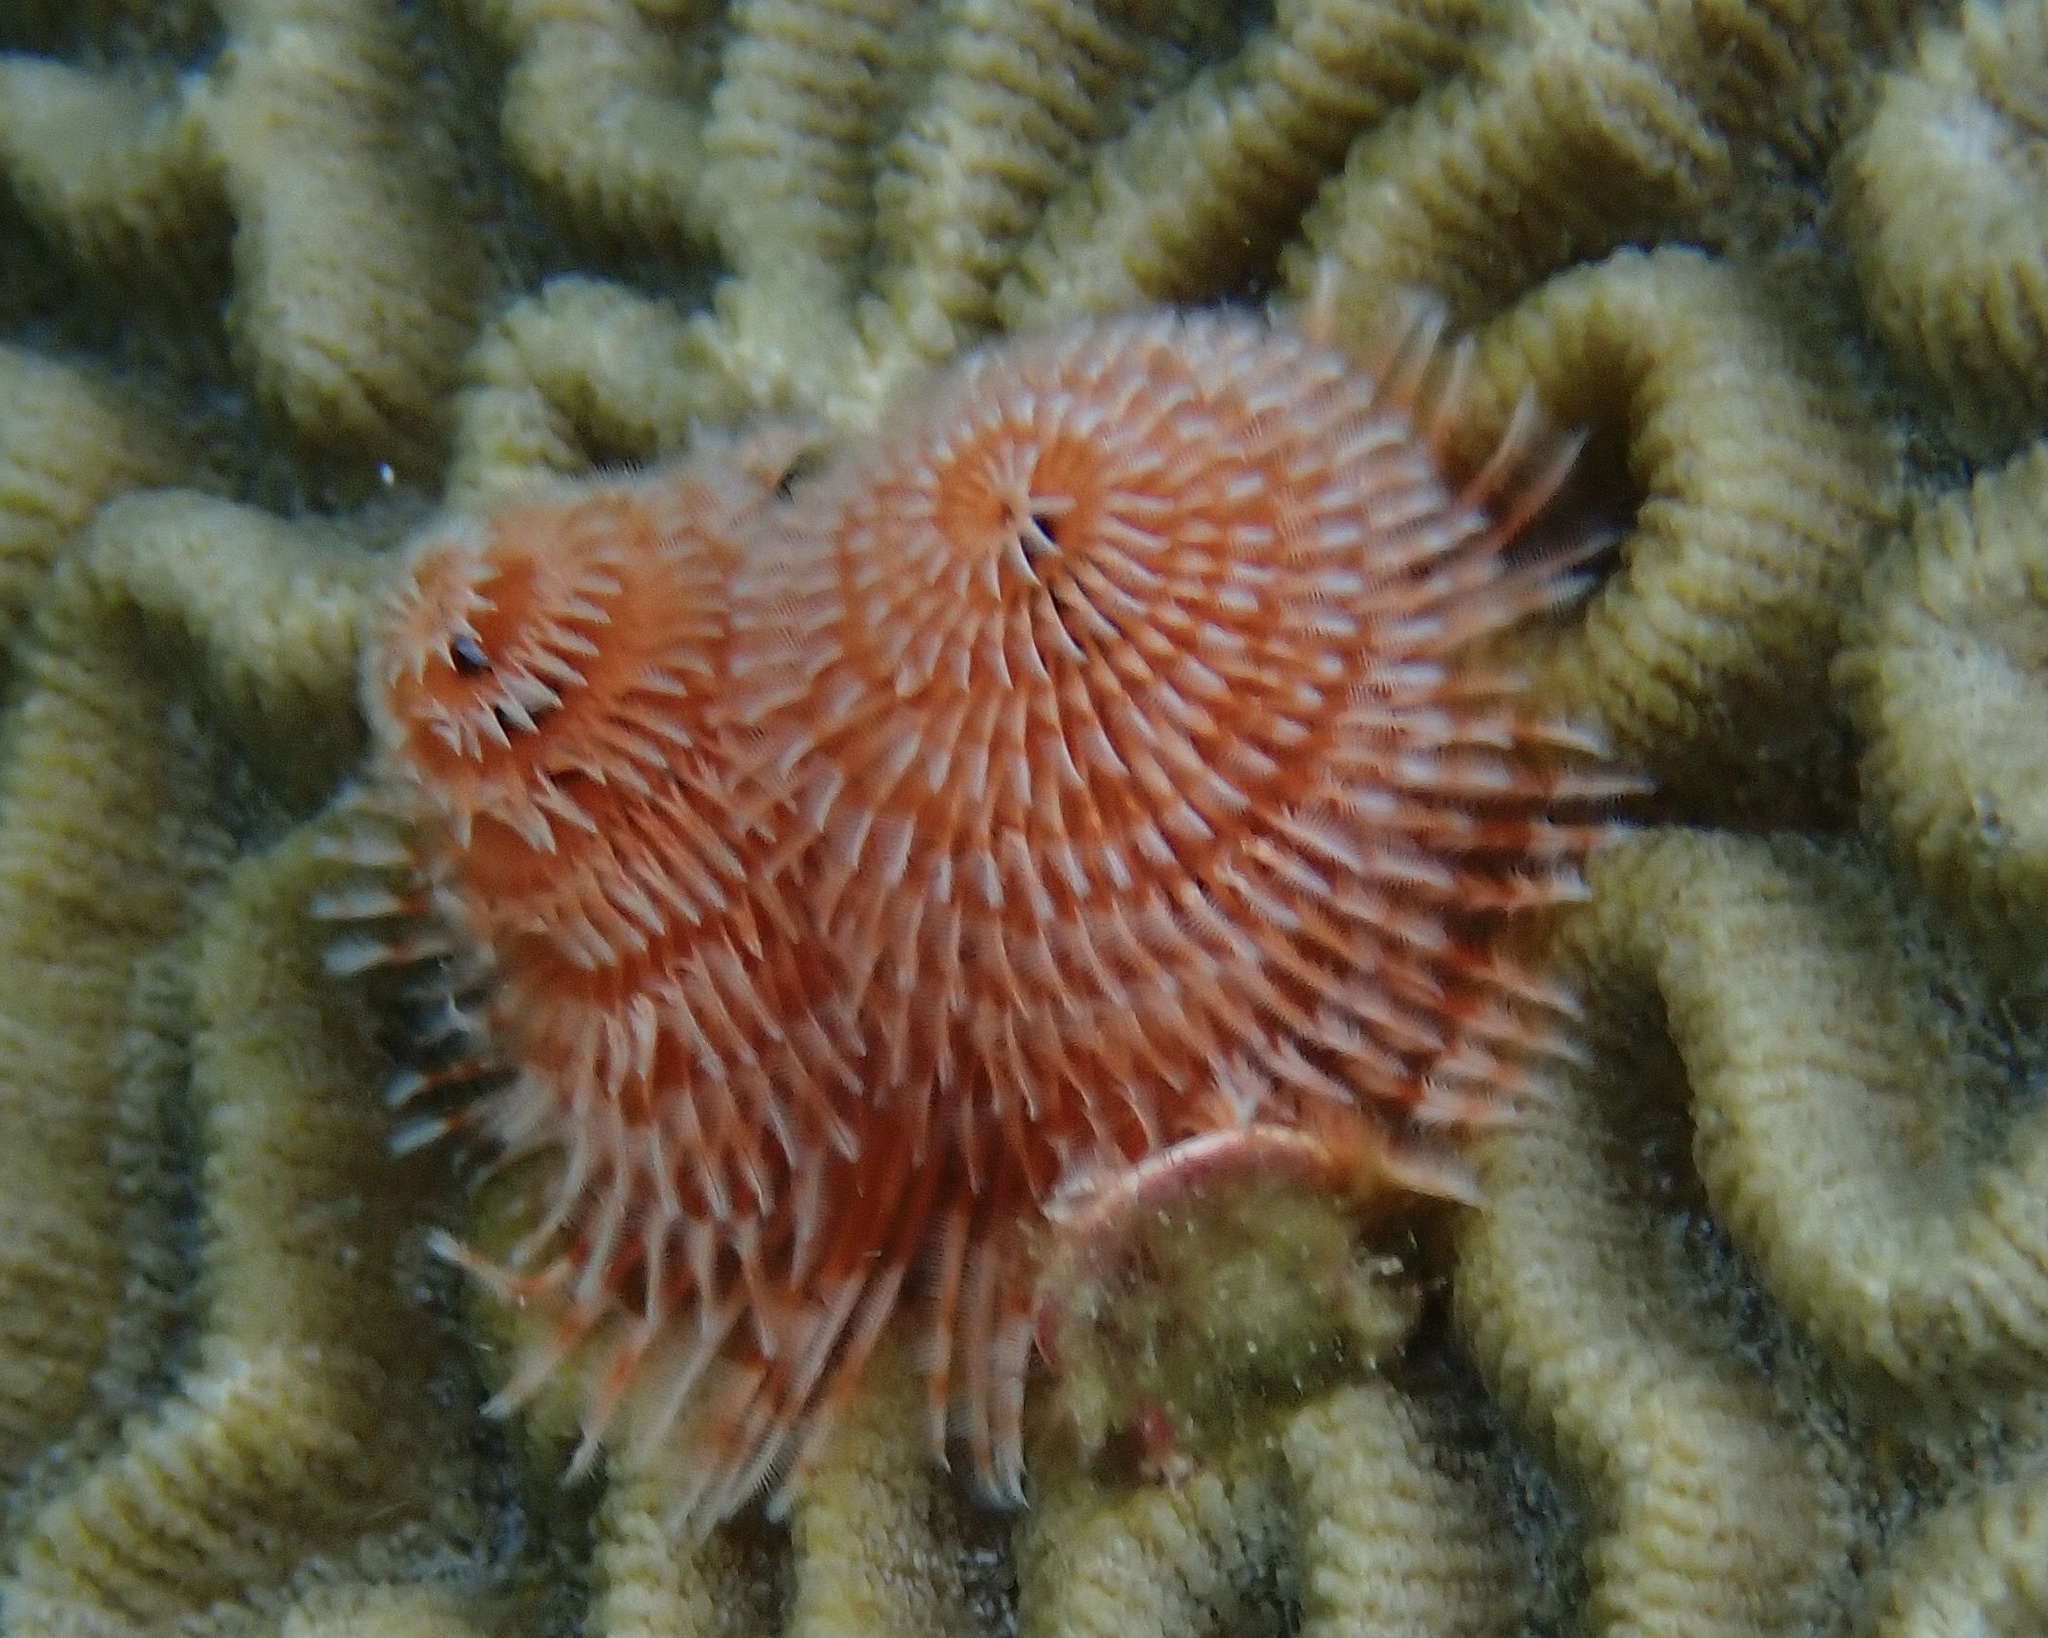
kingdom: Animalia
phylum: Annelida
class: Polychaeta
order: Sabellida
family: Serpulidae
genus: Spirobranchus
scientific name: Spirobranchus giganteus
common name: Christmas tree worm
